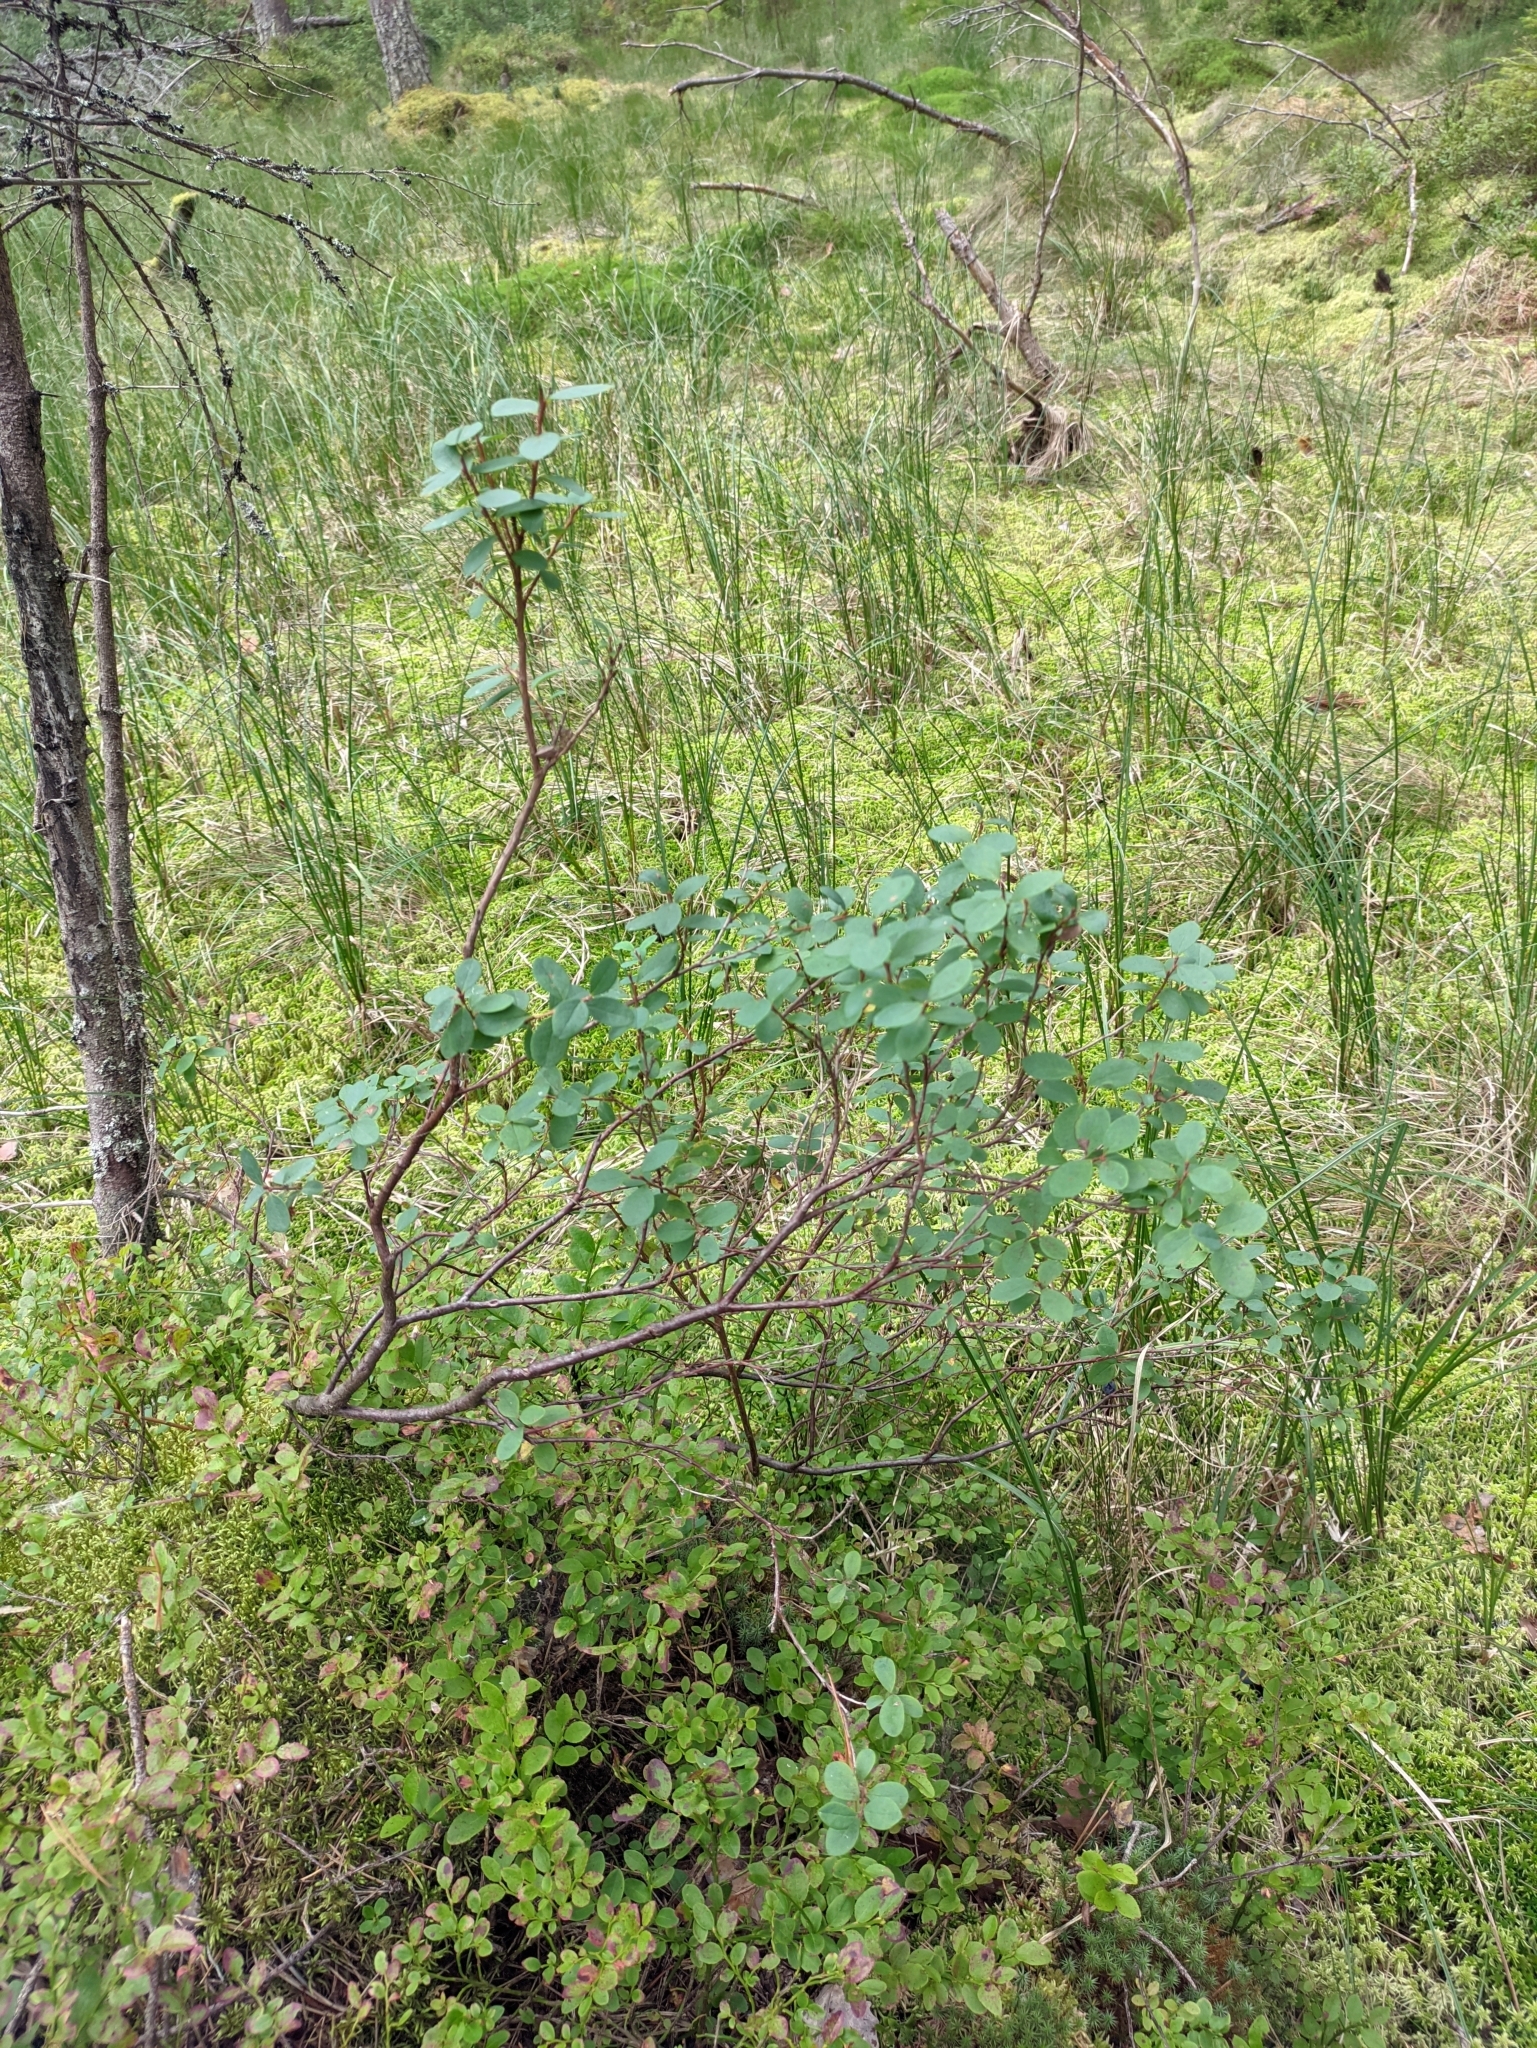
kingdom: Plantae
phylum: Tracheophyta
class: Magnoliopsida
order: Ericales
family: Ericaceae
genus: Vaccinium
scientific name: Vaccinium uliginosum
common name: Bog bilberry
